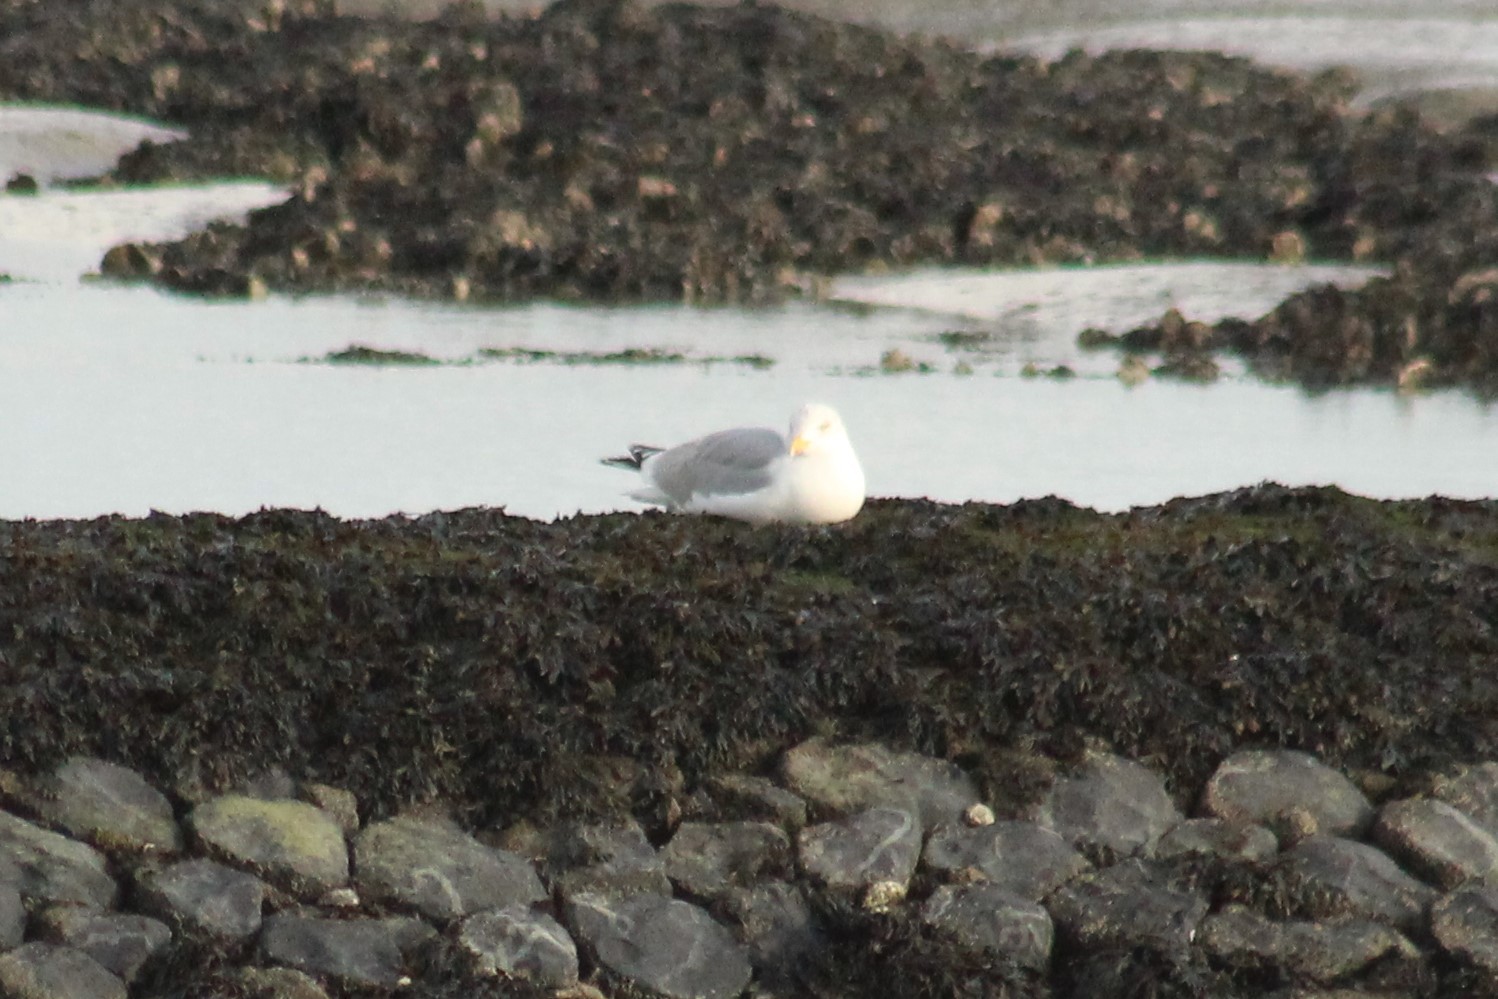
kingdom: Animalia
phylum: Chordata
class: Aves
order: Charadriiformes
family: Laridae
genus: Larus
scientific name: Larus argentatus
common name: Herring gull
